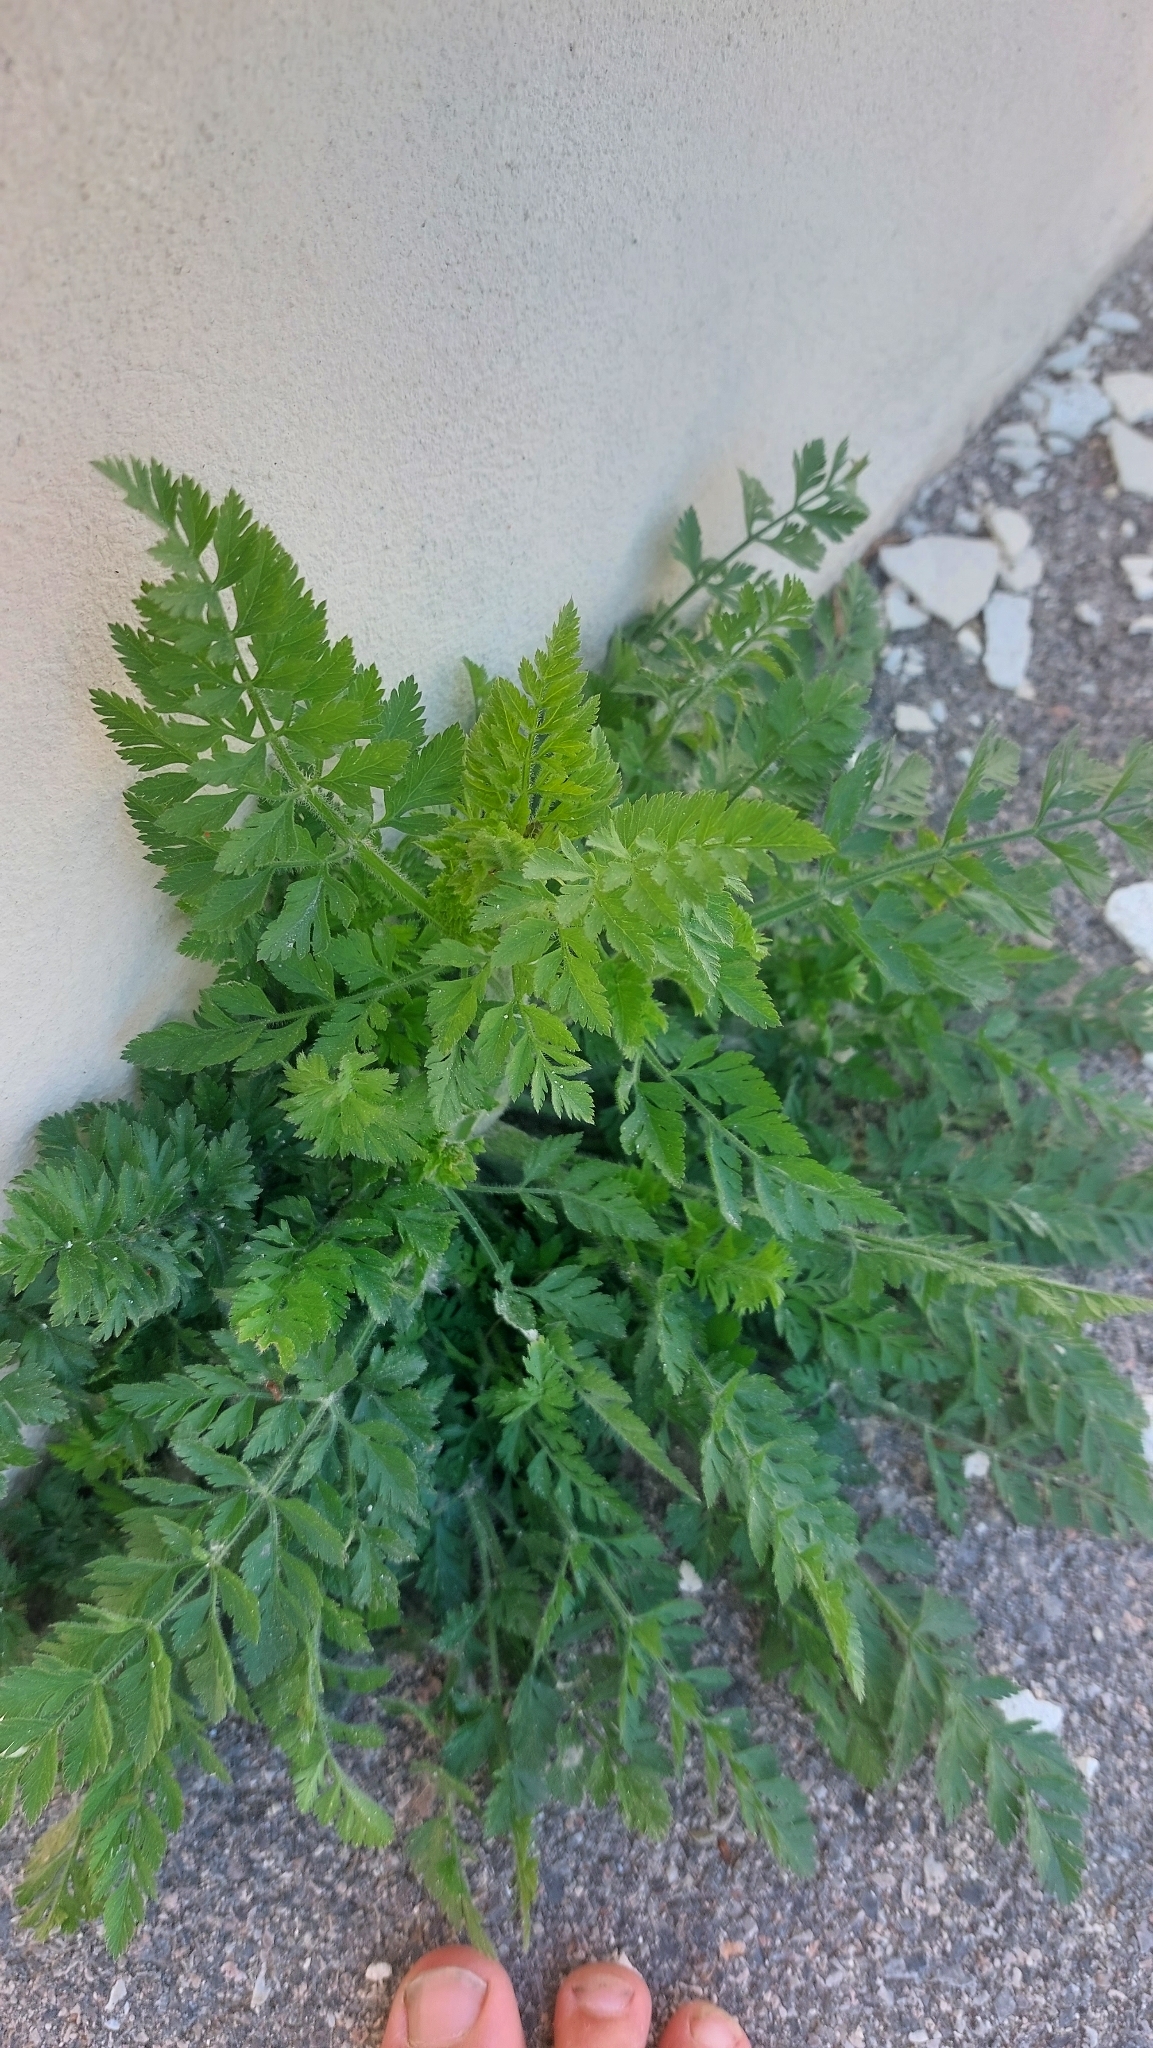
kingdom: Plantae
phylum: Tracheophyta
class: Magnoliopsida
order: Apiales
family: Apiaceae
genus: Daucus
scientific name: Daucus carota
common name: Wild carrot
